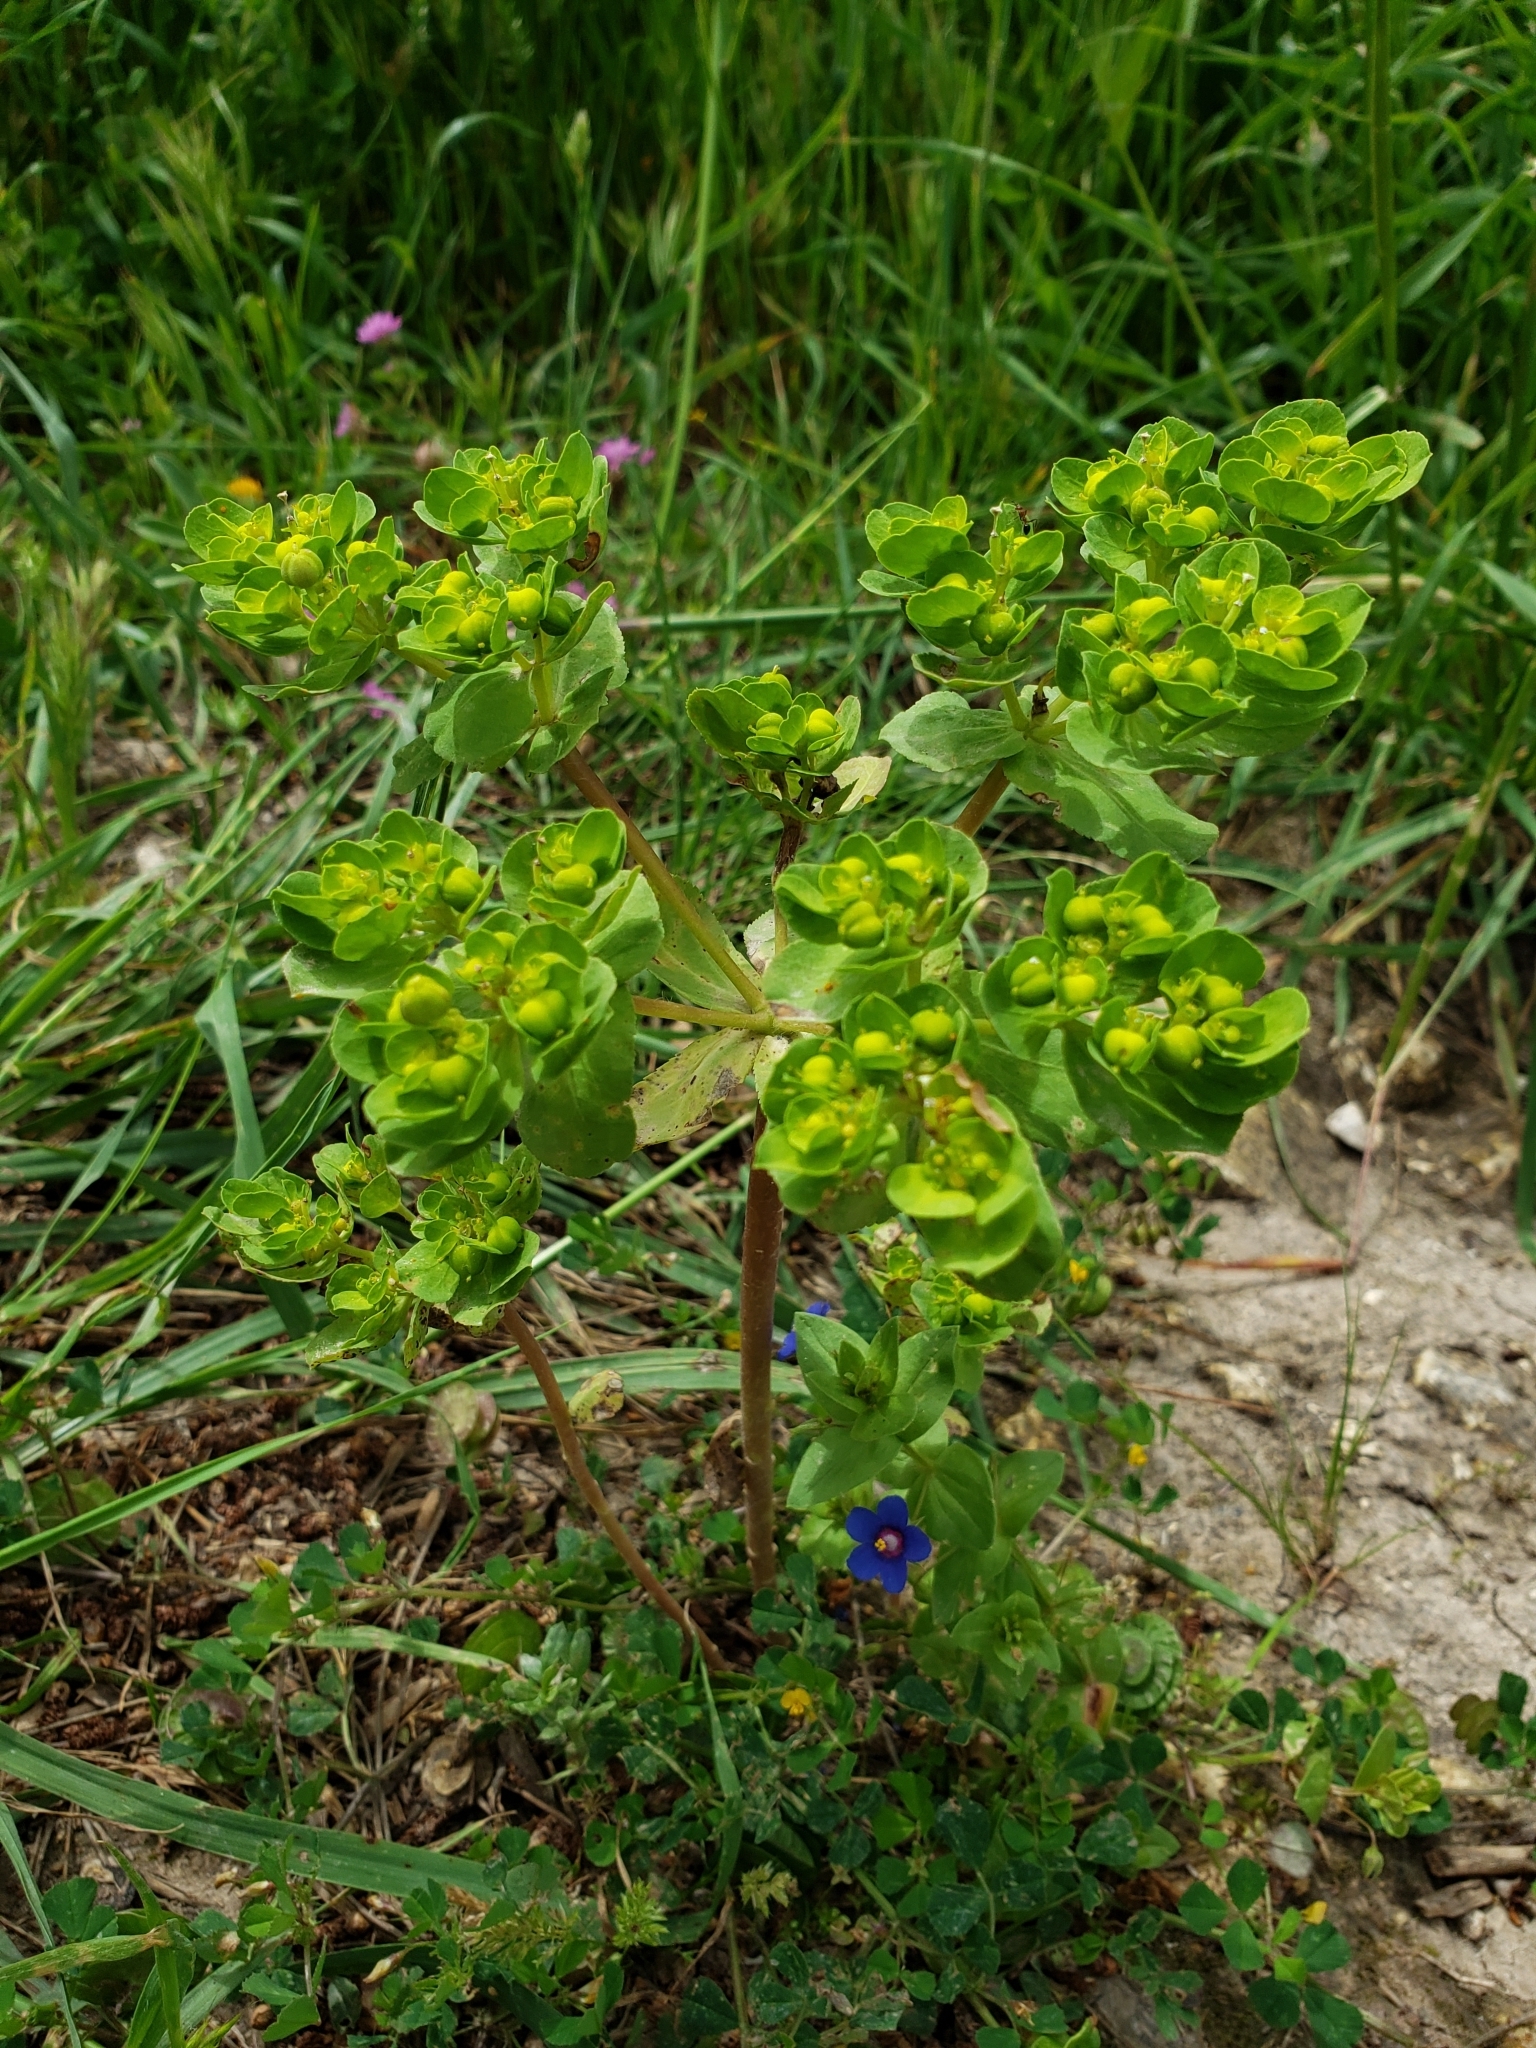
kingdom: Plantae
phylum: Tracheophyta
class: Magnoliopsida
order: Malpighiales
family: Euphorbiaceae
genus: Euphorbia
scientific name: Euphorbia helioscopia
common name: Sun spurge
